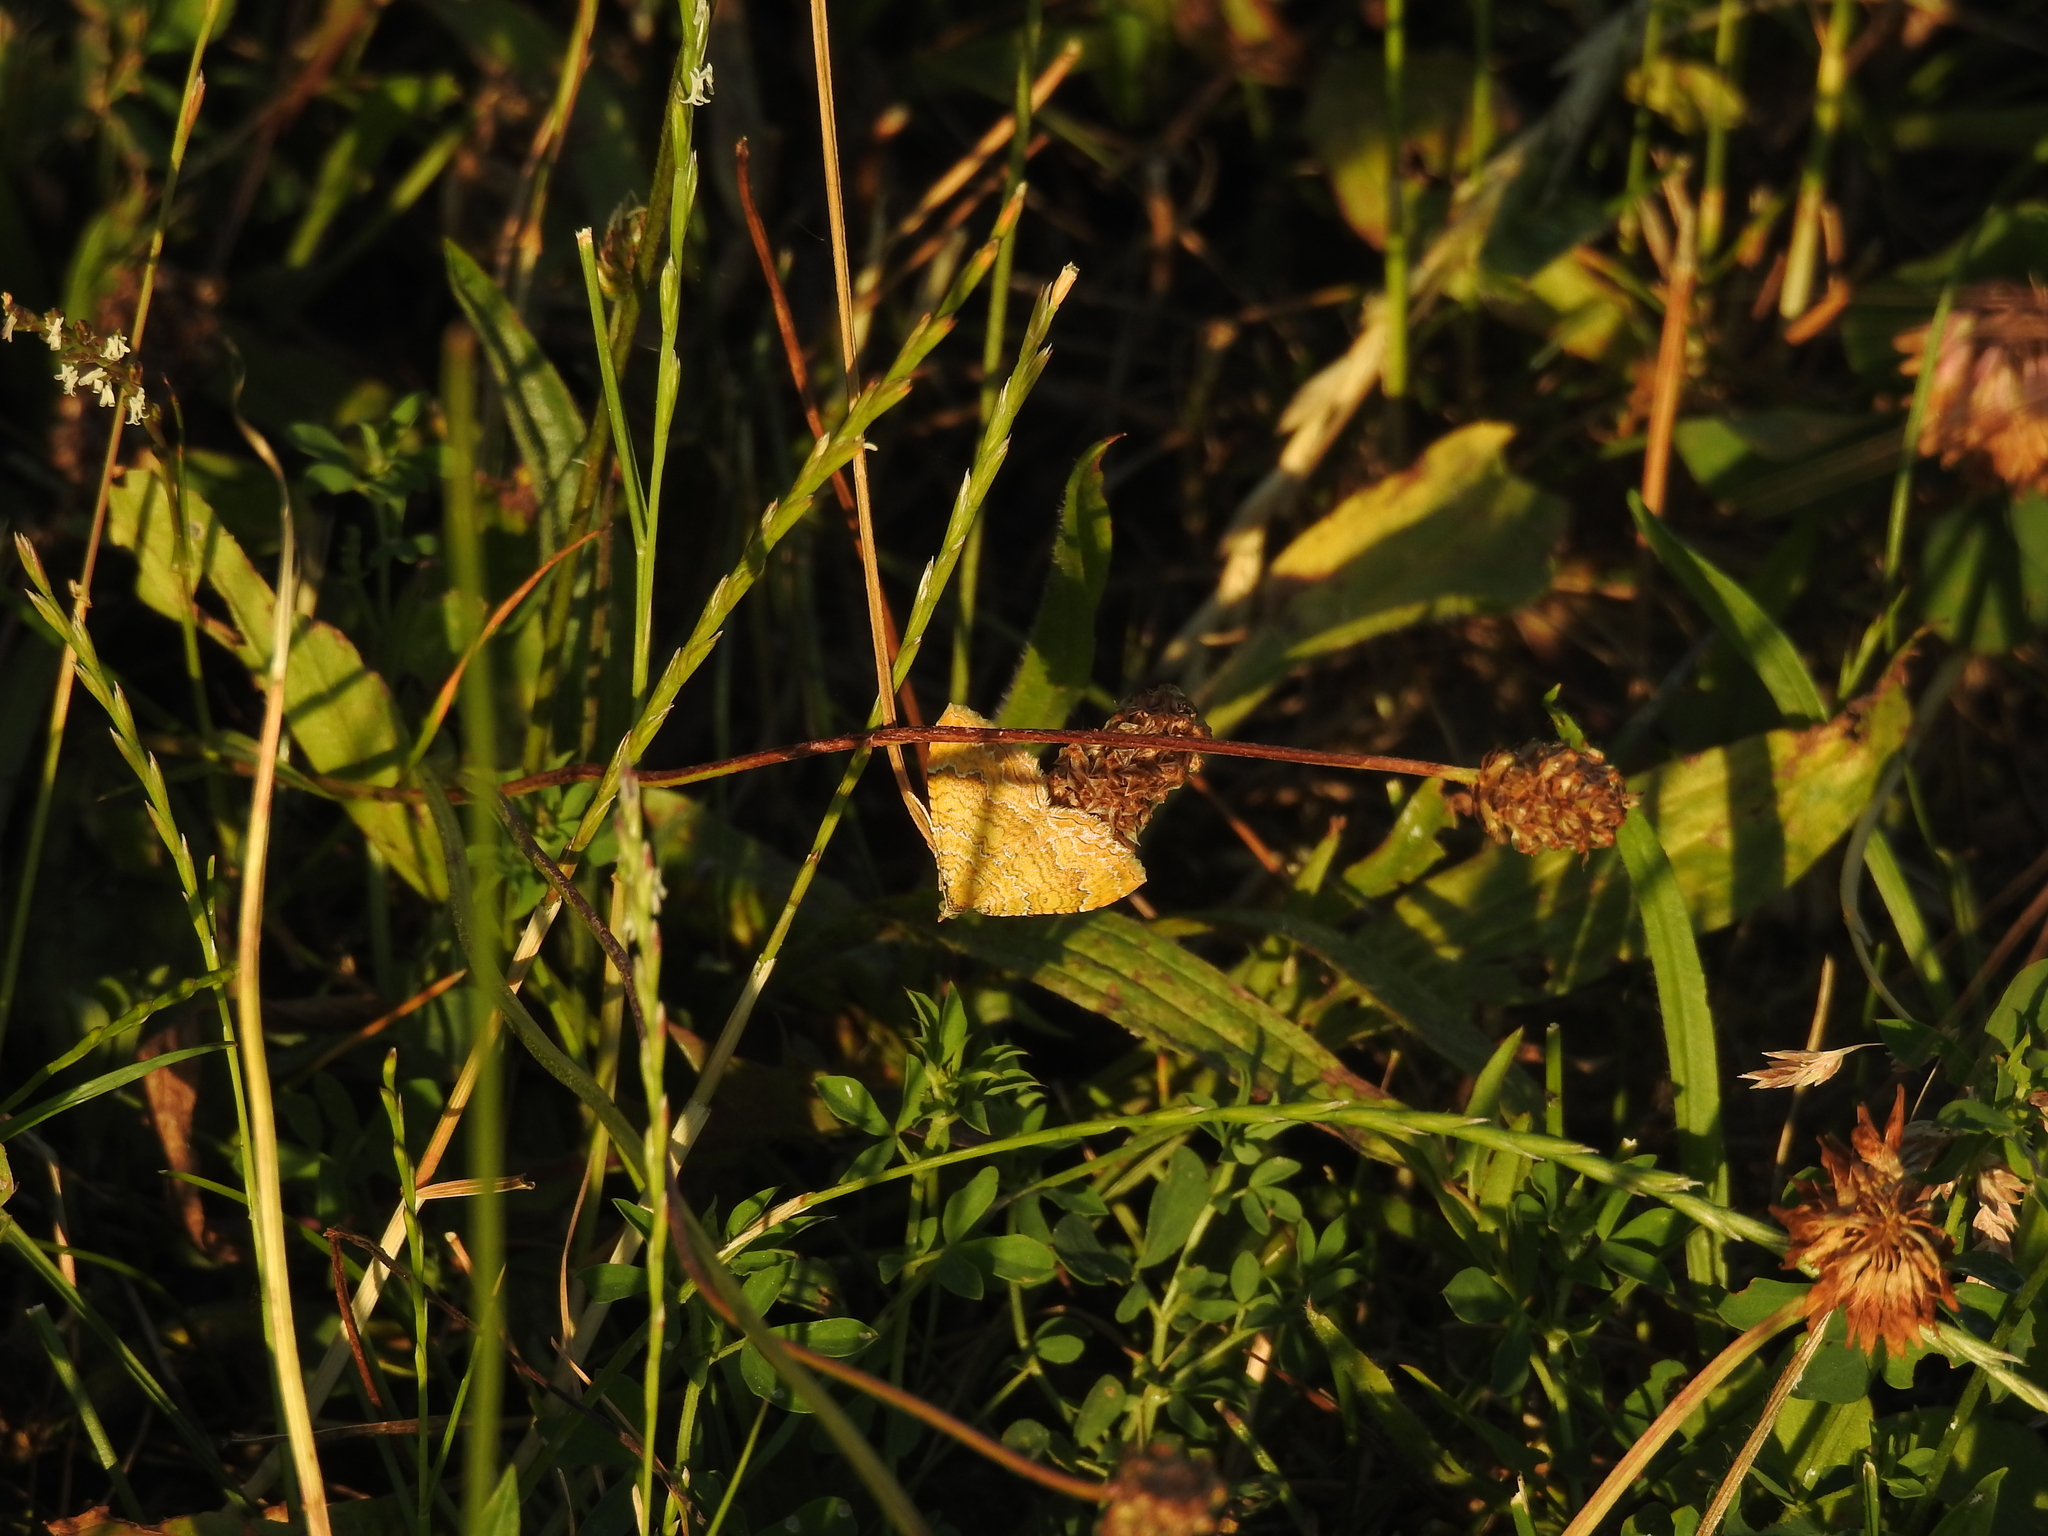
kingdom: Animalia
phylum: Arthropoda
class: Insecta
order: Lepidoptera
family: Geometridae
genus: Camptogramma
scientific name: Camptogramma bilineata
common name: Yellow shell
